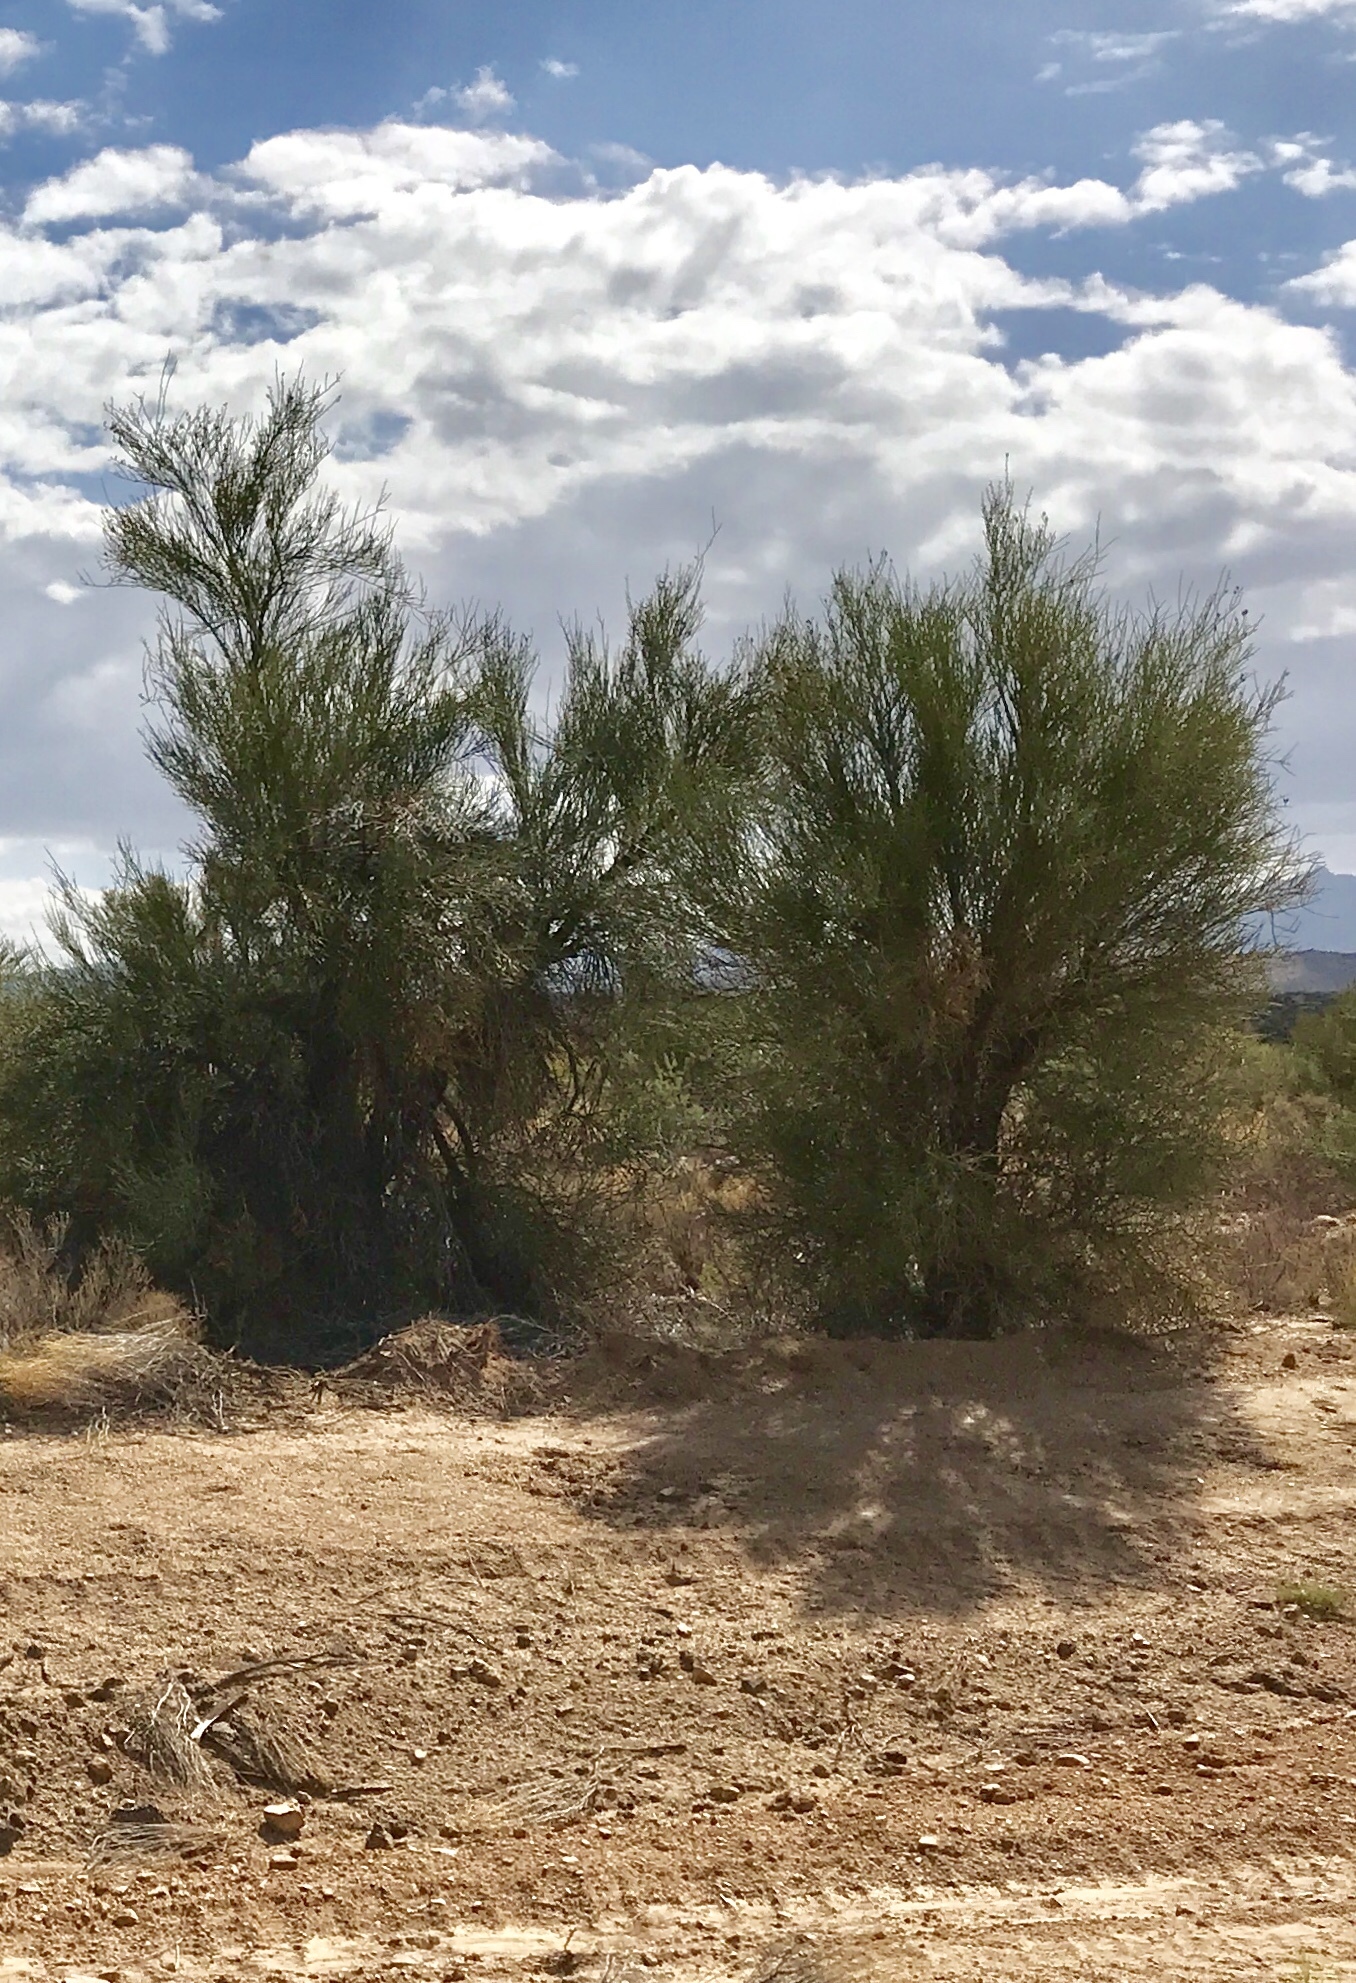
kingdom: Plantae
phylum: Tracheophyta
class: Magnoliopsida
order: Celastrales
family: Celastraceae
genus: Canotia
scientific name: Canotia holacantha
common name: Crucifixion thorns
